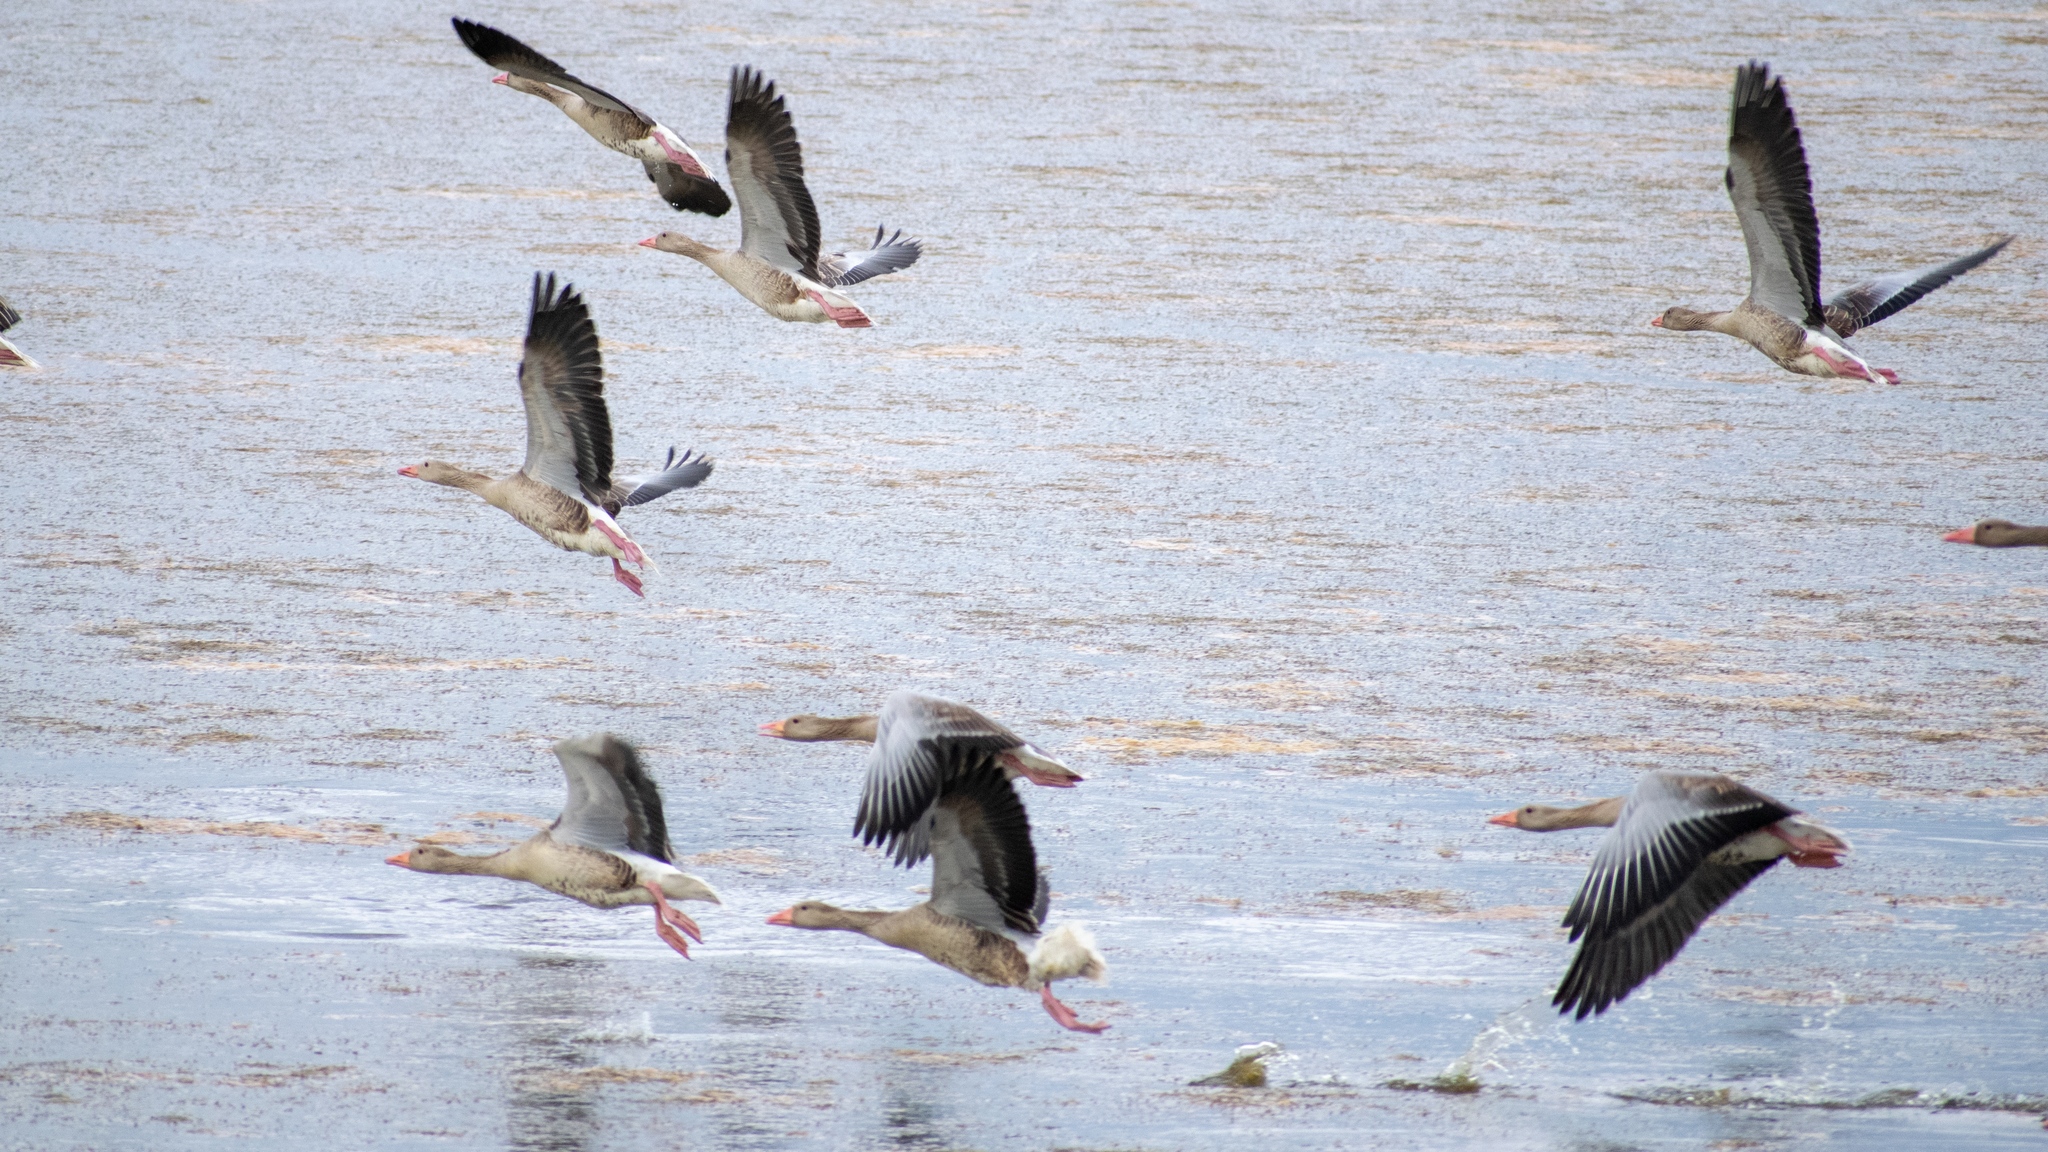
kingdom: Animalia
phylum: Chordata
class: Aves
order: Anseriformes
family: Anatidae
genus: Anser
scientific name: Anser anser
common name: Greylag goose
